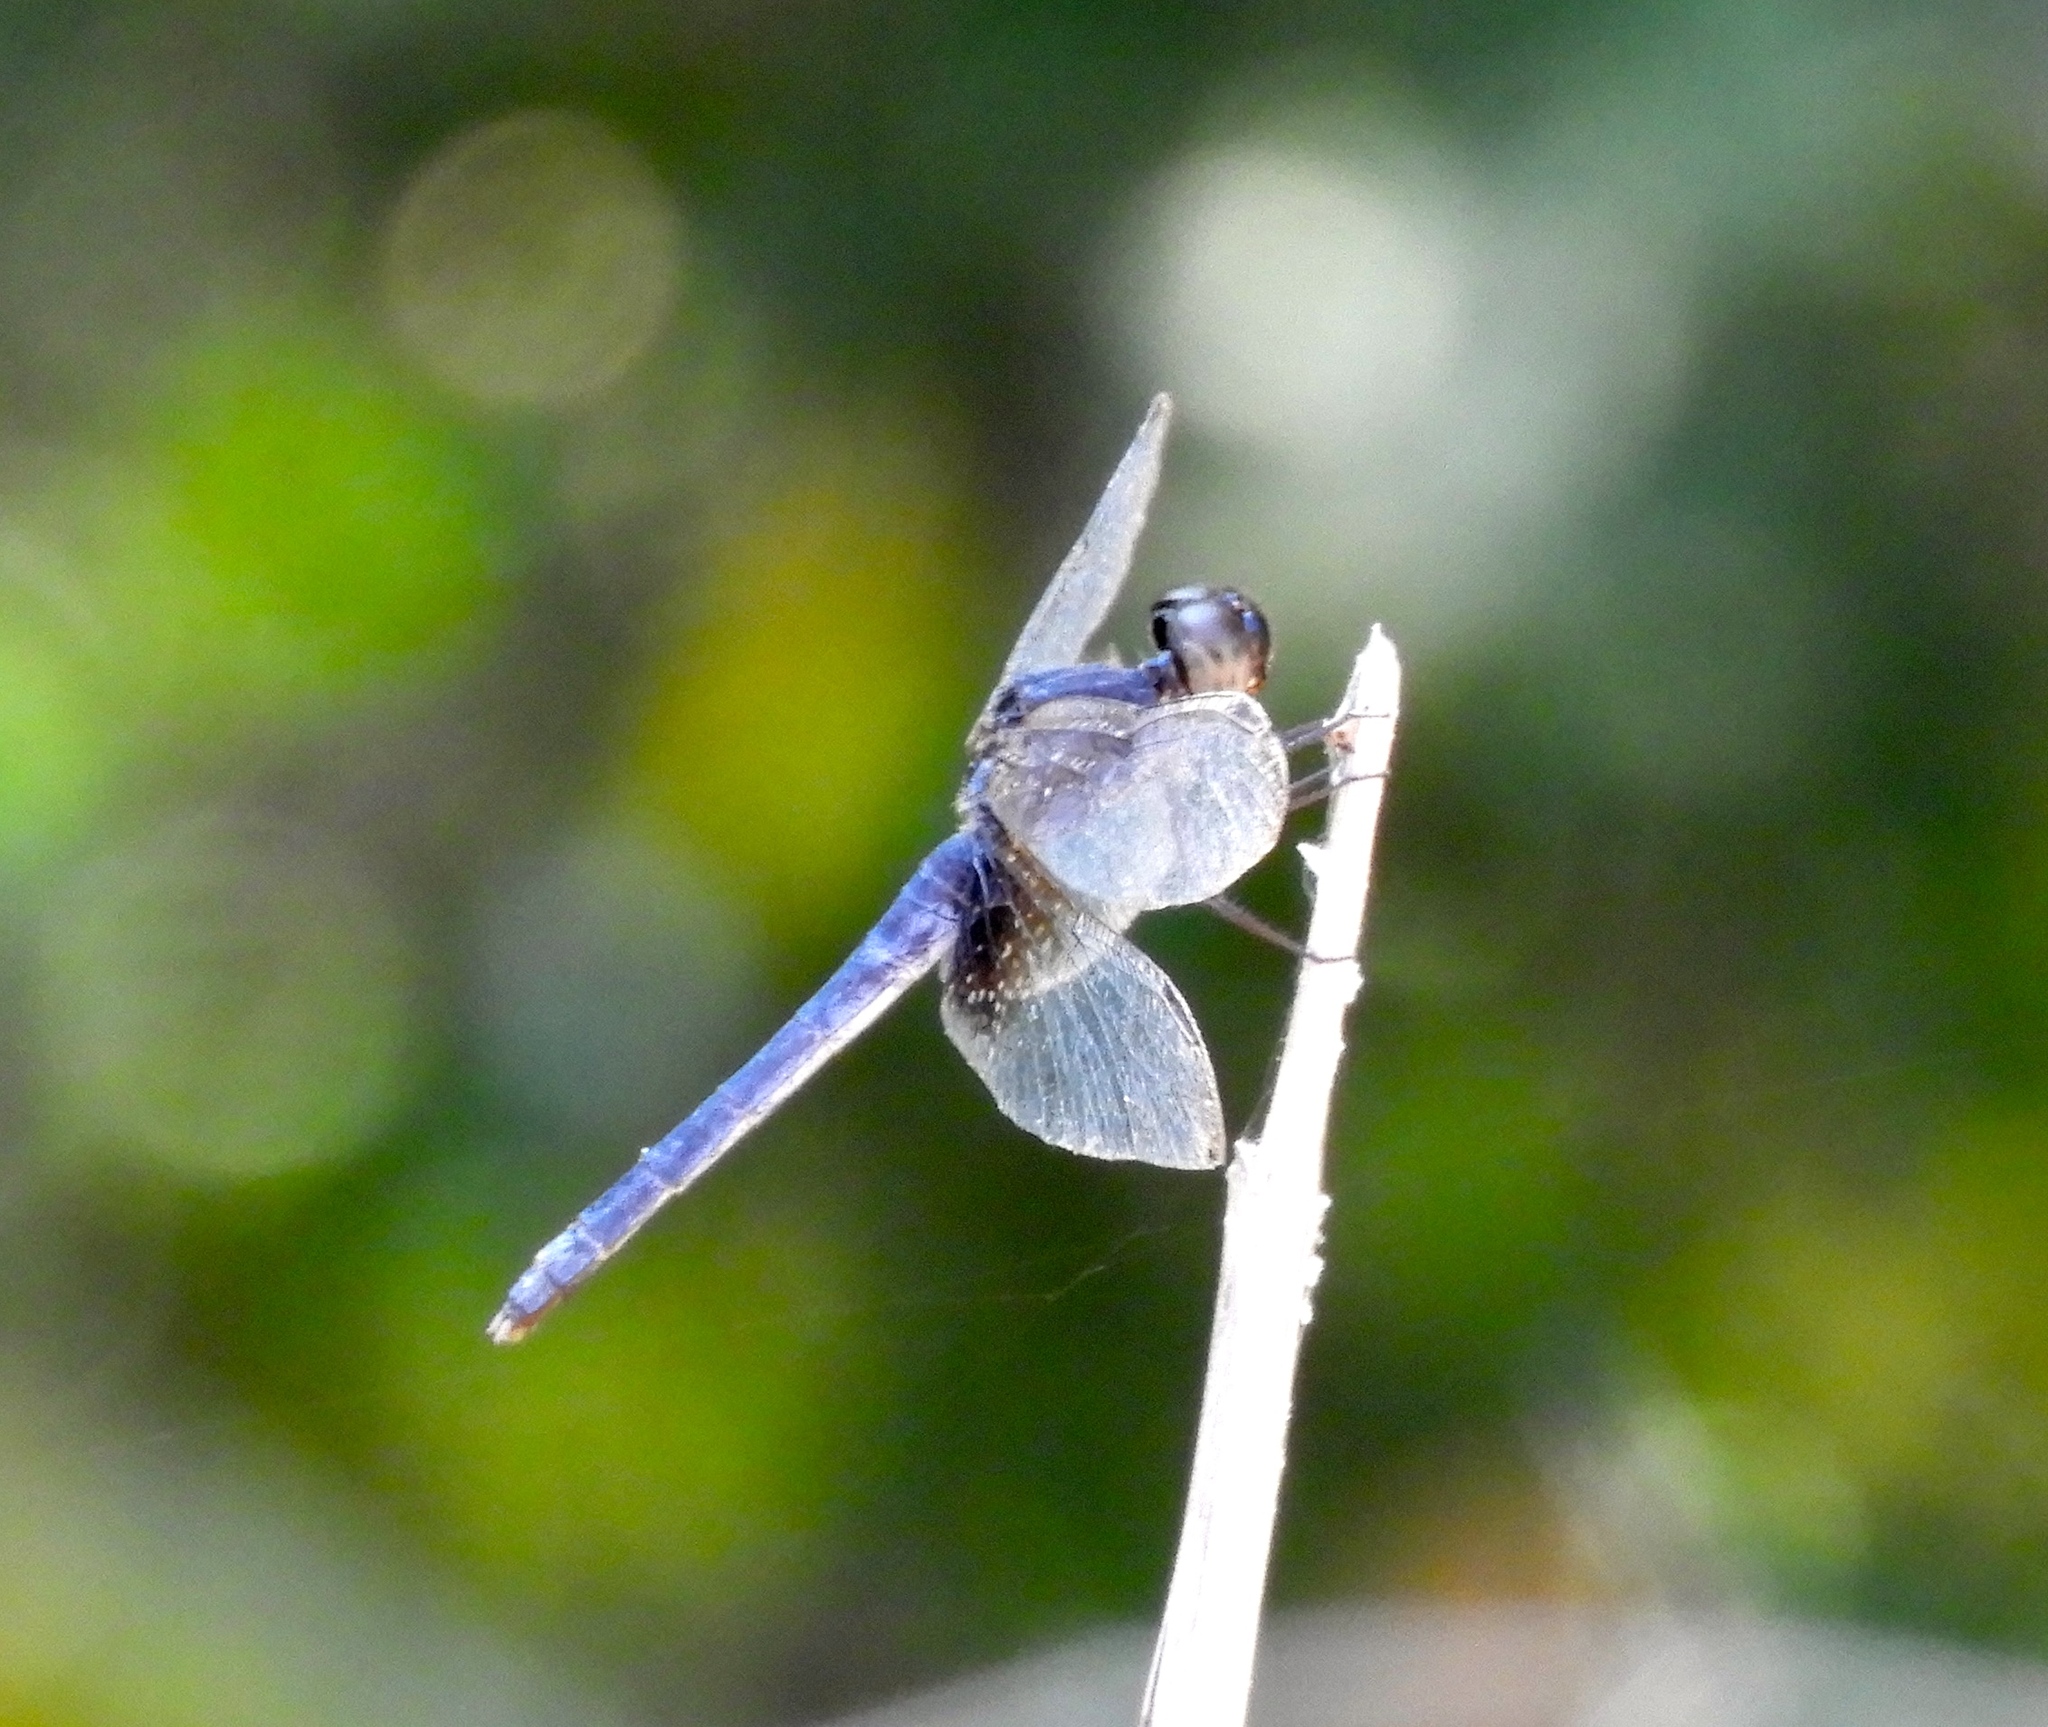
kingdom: Animalia
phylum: Arthropoda
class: Insecta
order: Odonata
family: Libellulidae
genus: Erythrodiplax
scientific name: Erythrodiplax funerea
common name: Black-winged dragonlet
